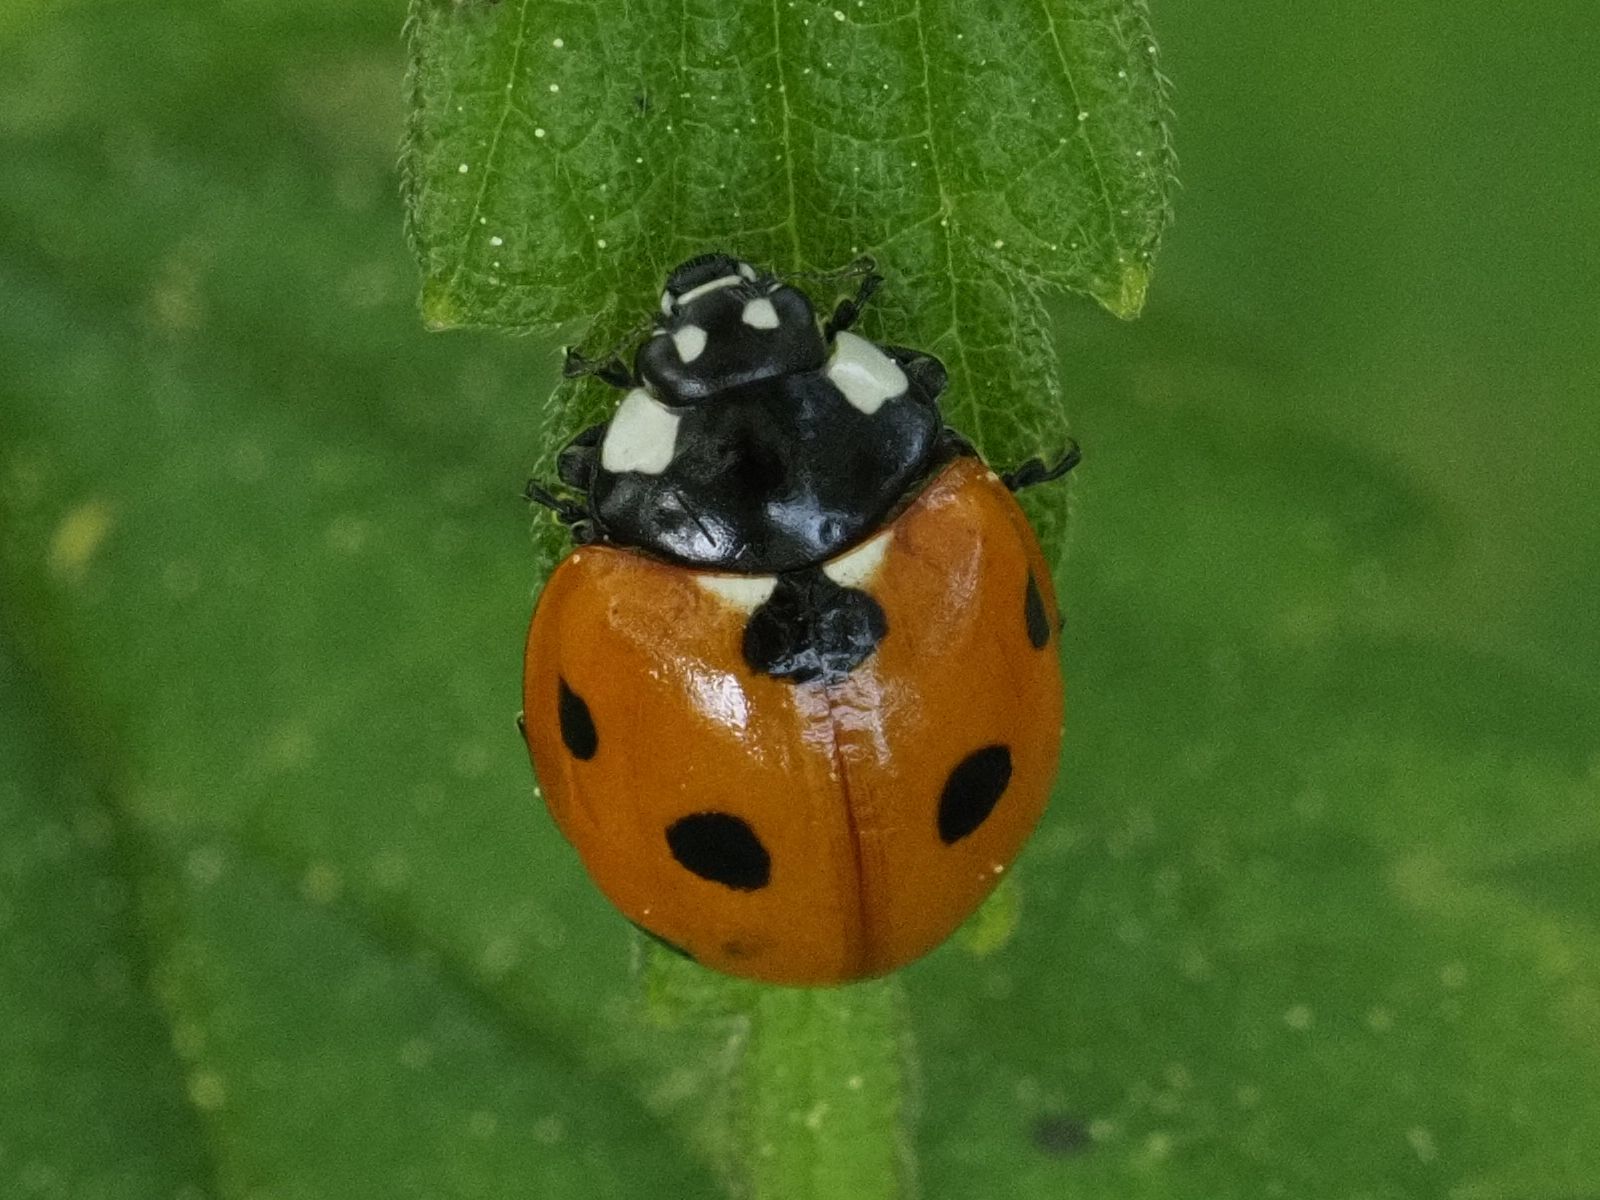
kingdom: Animalia
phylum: Arthropoda
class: Insecta
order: Coleoptera
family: Coccinellidae
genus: Coccinella
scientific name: Coccinella septempunctata
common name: Sevenspotted lady beetle
